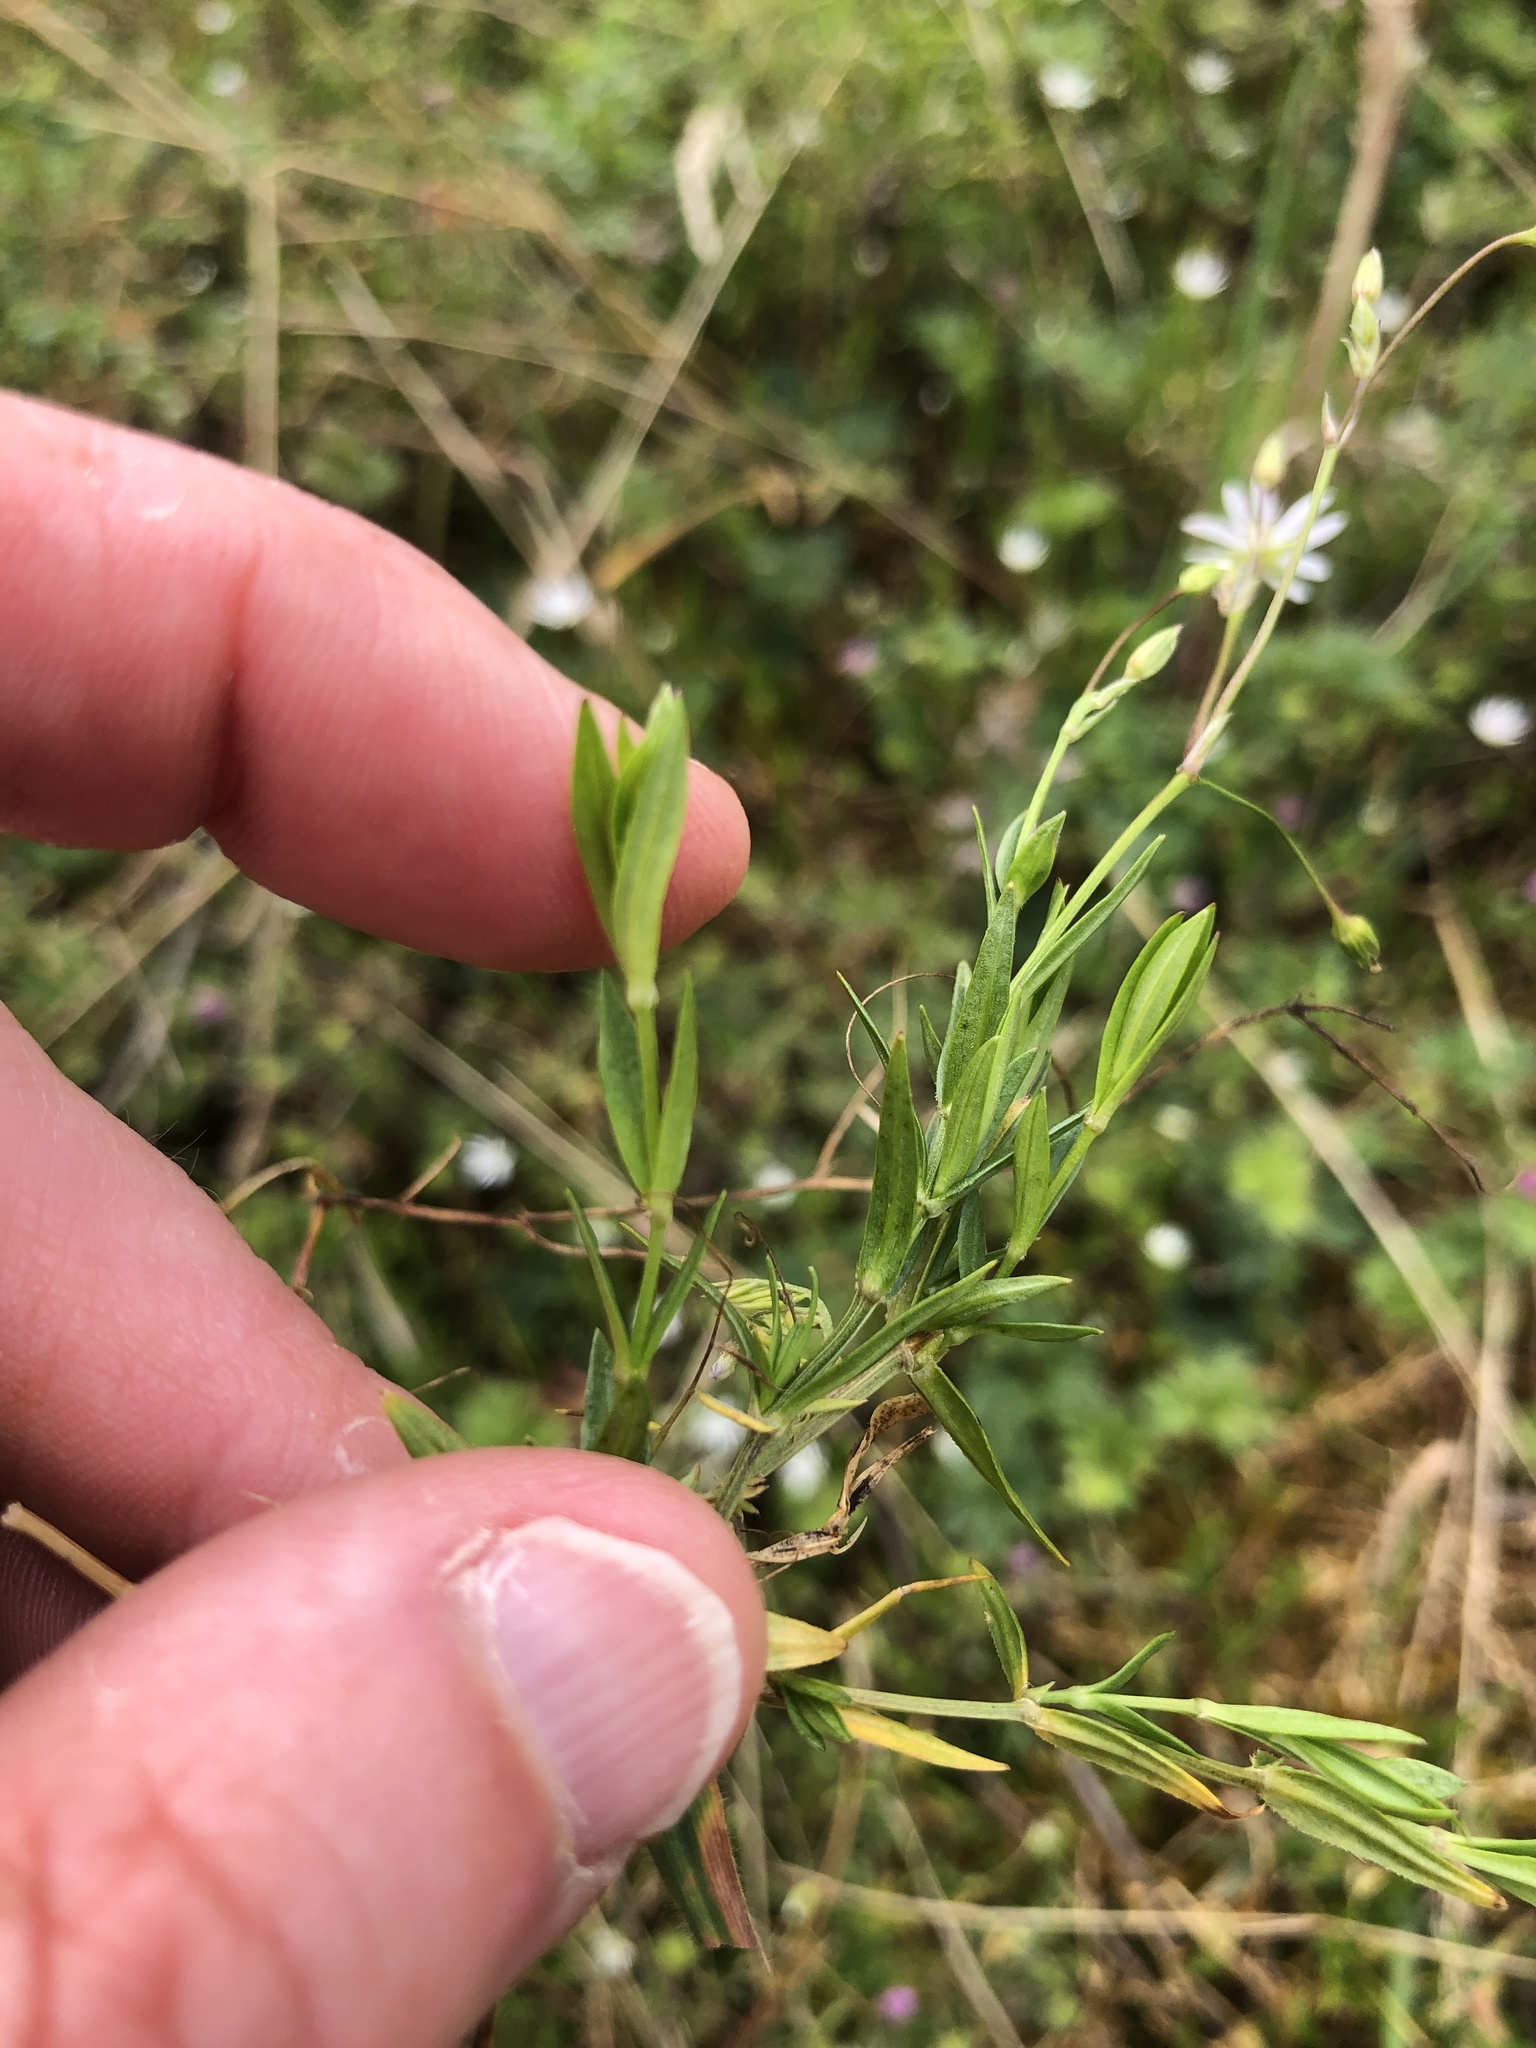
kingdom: Plantae
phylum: Tracheophyta
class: Magnoliopsida
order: Caryophyllales
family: Caryophyllaceae
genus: Stellaria
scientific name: Stellaria graminea
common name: Grass-like starwort
